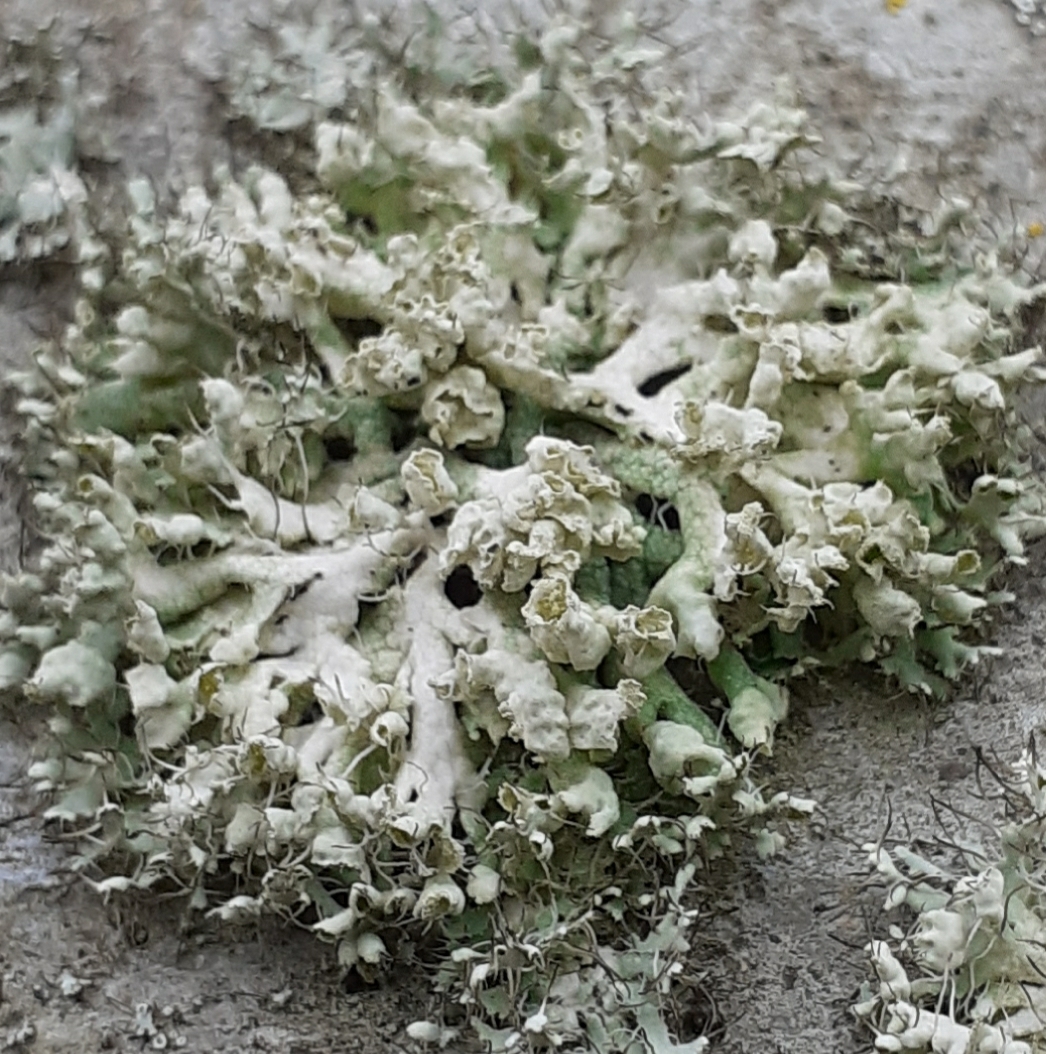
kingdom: Fungi
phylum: Ascomycota
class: Lecanoromycetes
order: Caliciales
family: Physciaceae
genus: Physcia
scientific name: Physcia adscendens
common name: Hooded rosette lichen
